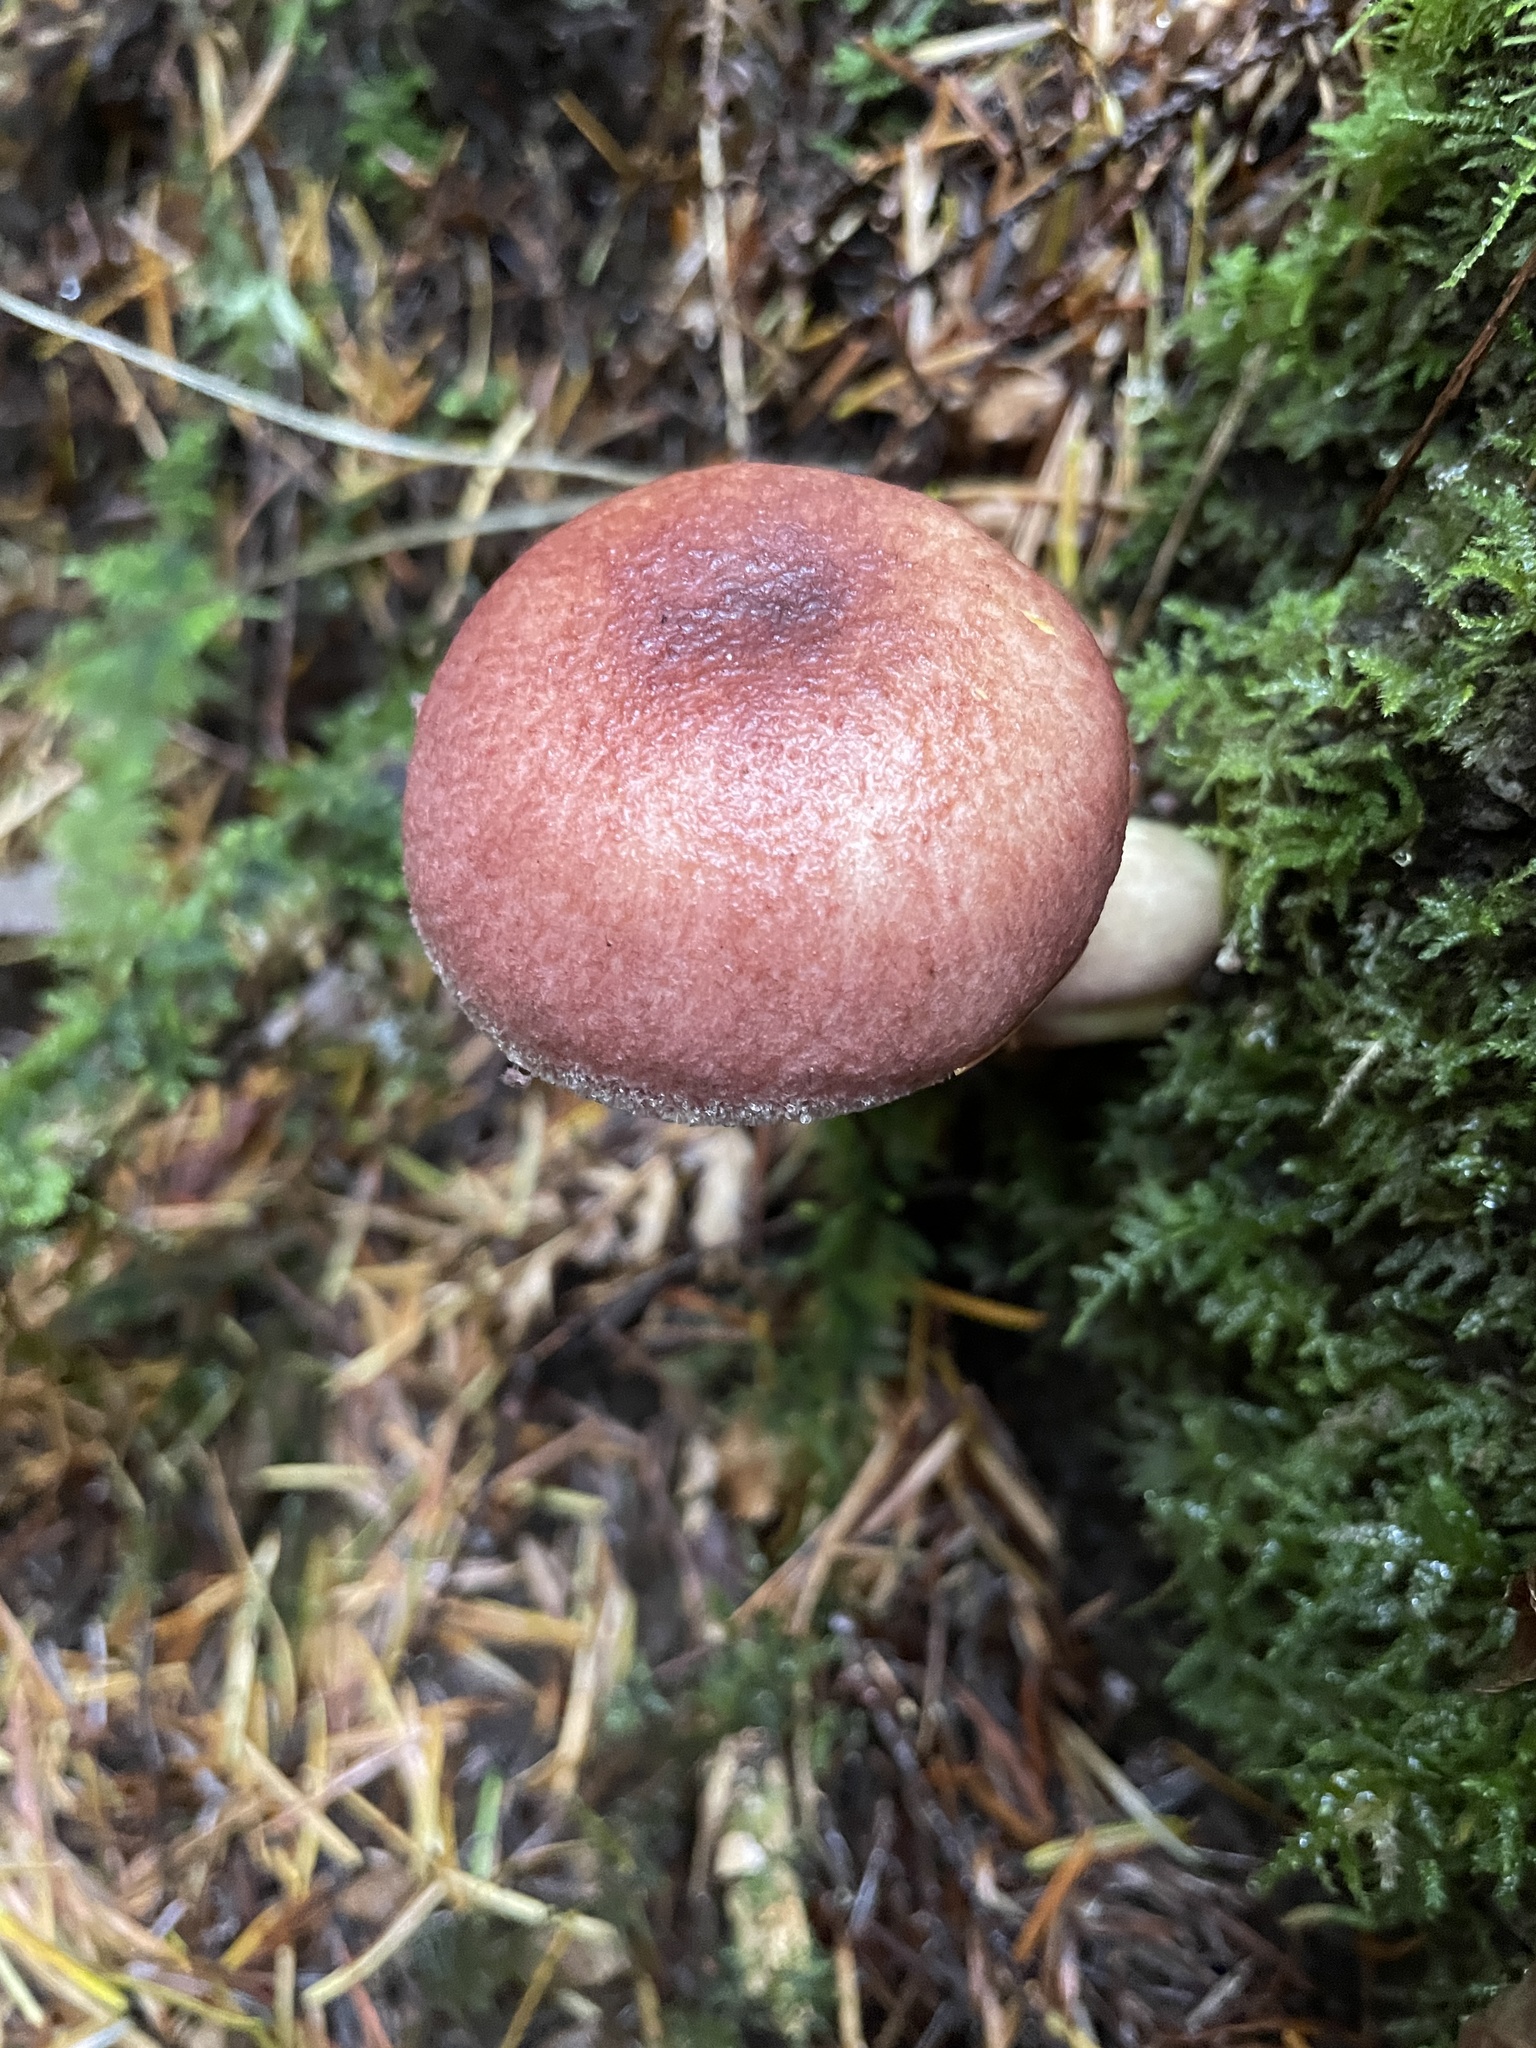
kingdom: Fungi
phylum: Basidiomycota
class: Agaricomycetes
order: Agaricales
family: Tricholomataceae
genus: Tricholomopsis
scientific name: Tricholomopsis rutilans
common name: Plums and custard
